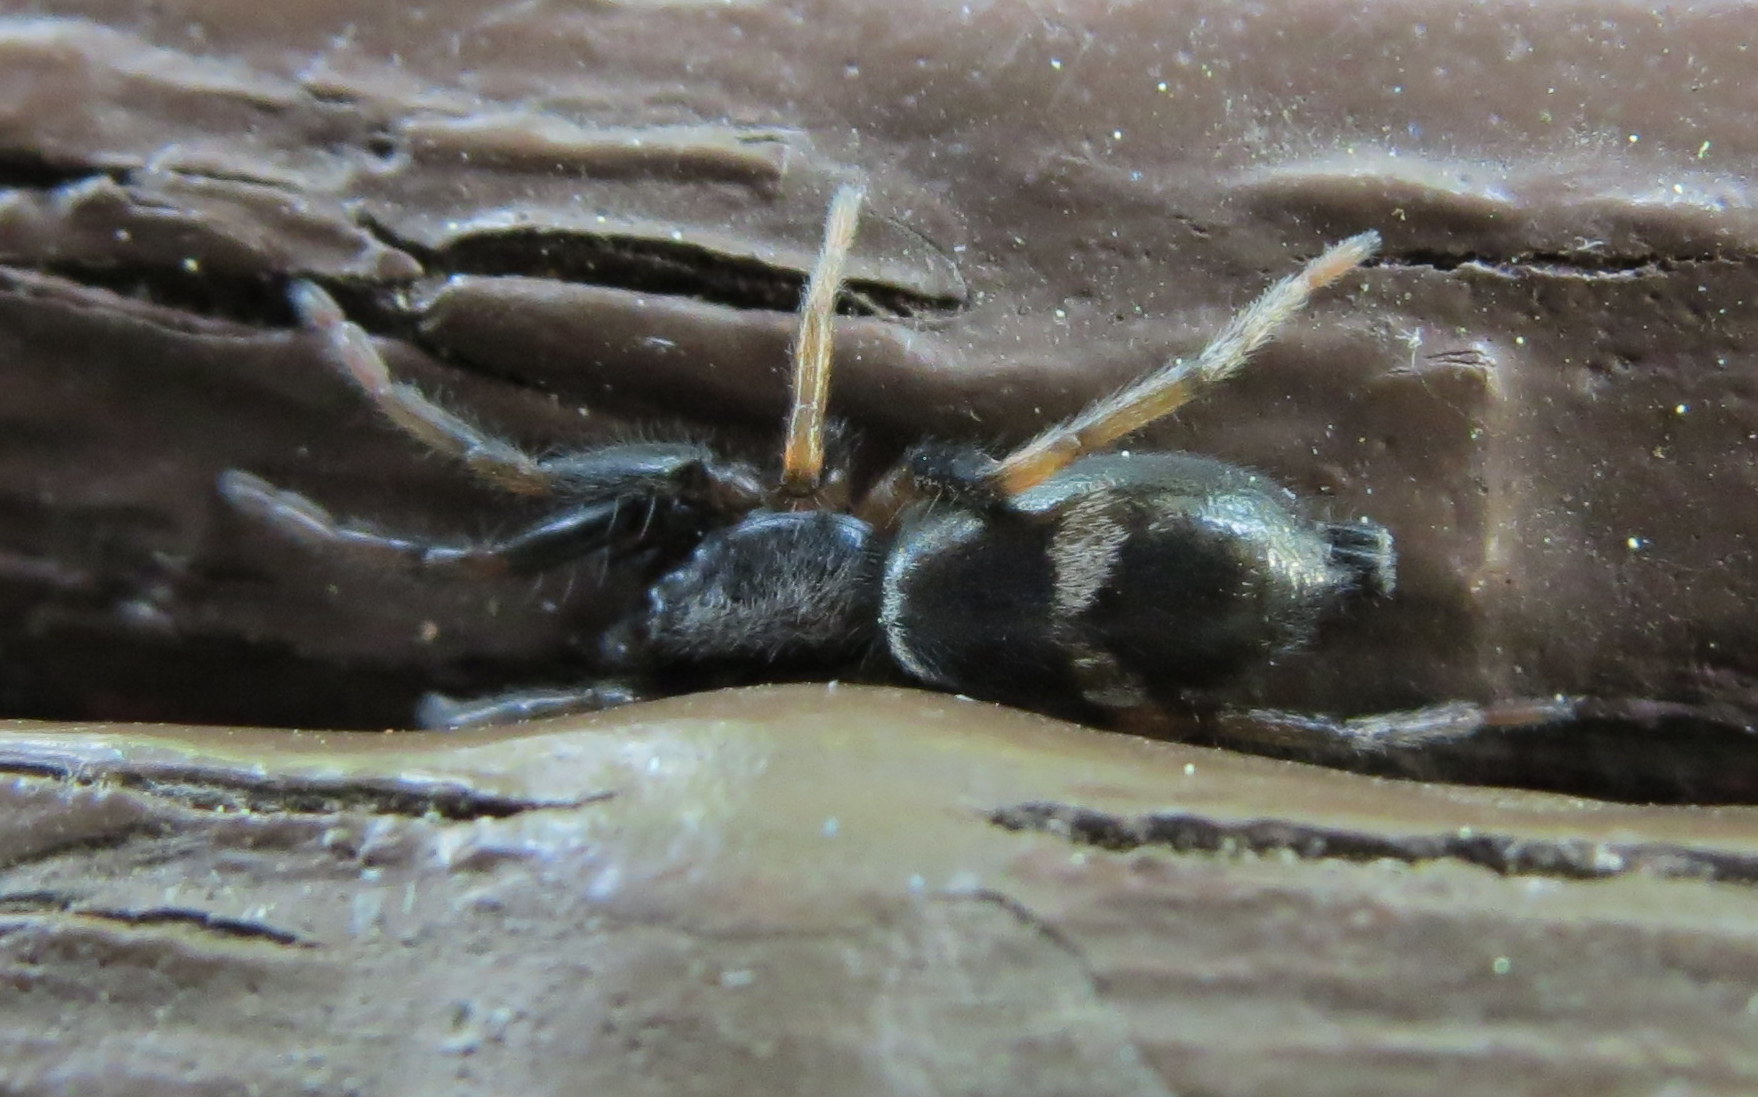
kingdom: Animalia
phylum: Arthropoda
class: Arachnida
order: Araneae
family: Gnaphosidae
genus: Sergiolus
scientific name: Sergiolus montanus
